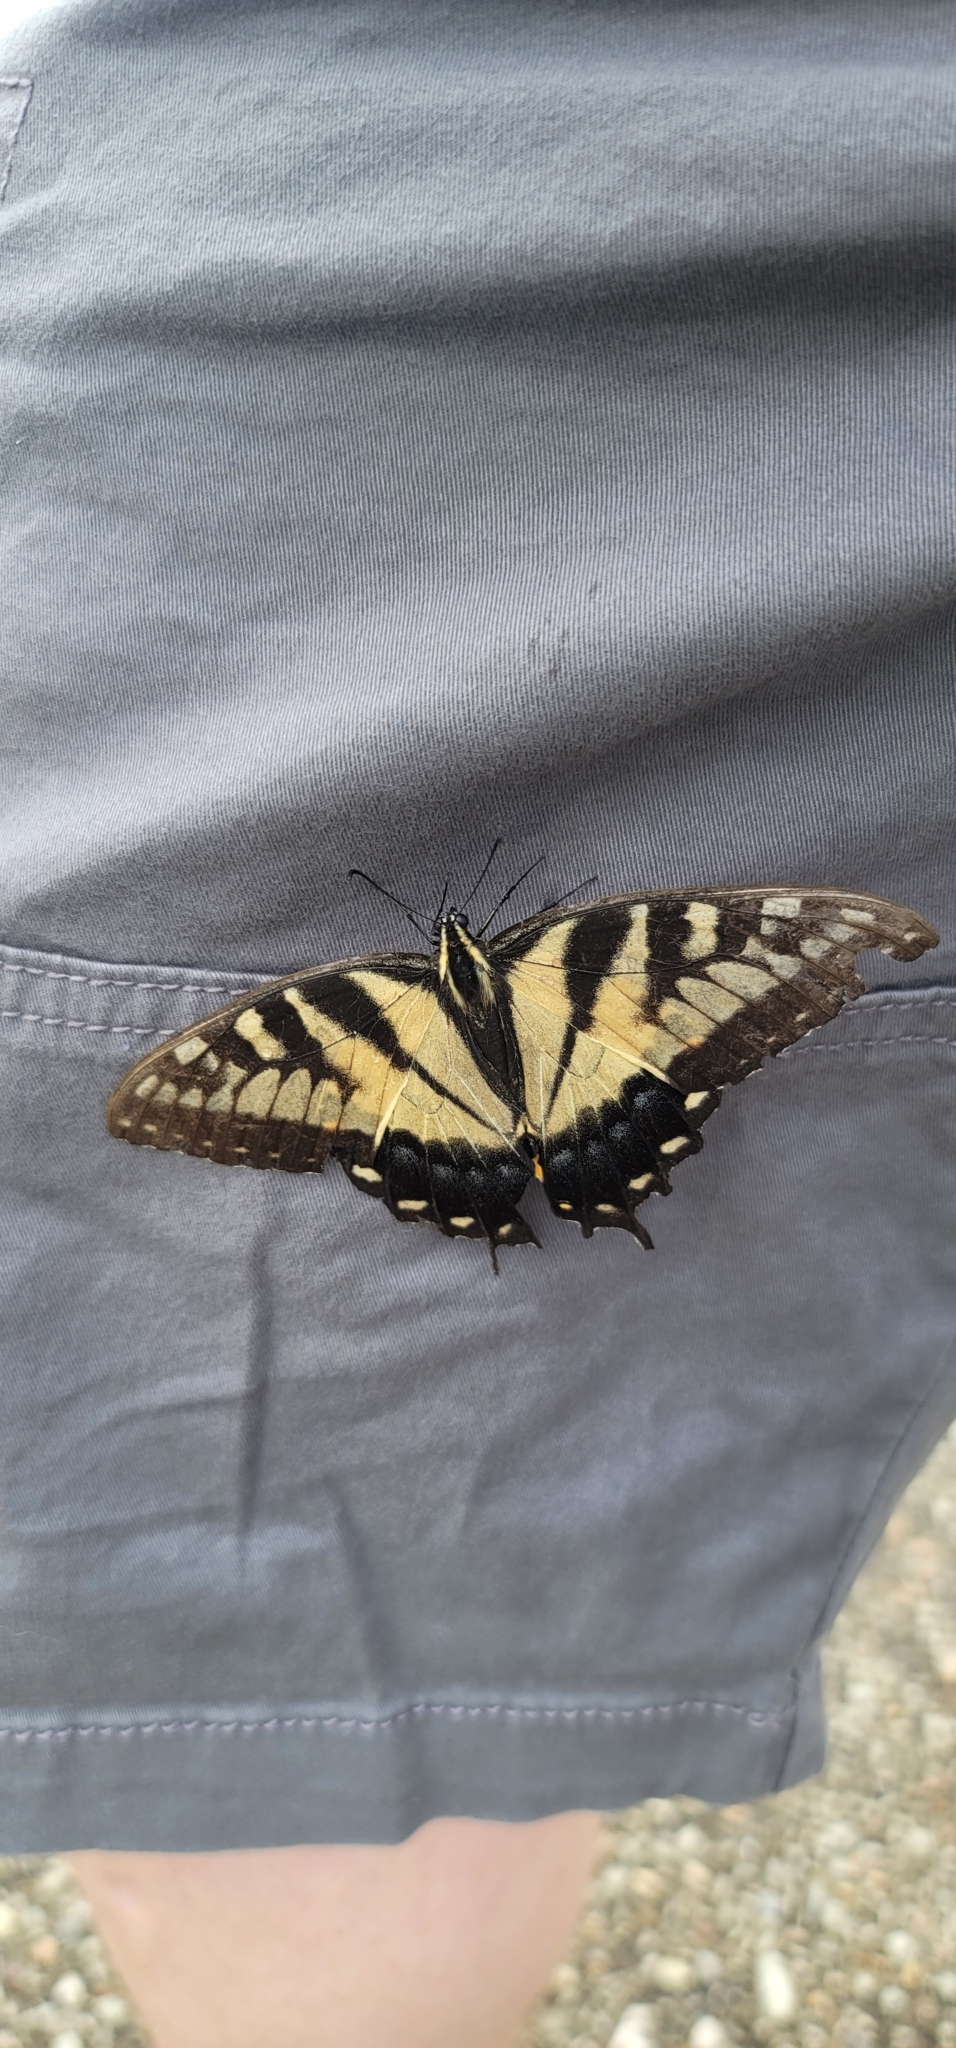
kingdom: Animalia
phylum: Arthropoda
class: Insecta
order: Lepidoptera
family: Papilionidae
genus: Papilio
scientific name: Papilio glaucus
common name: Tiger swallowtail
